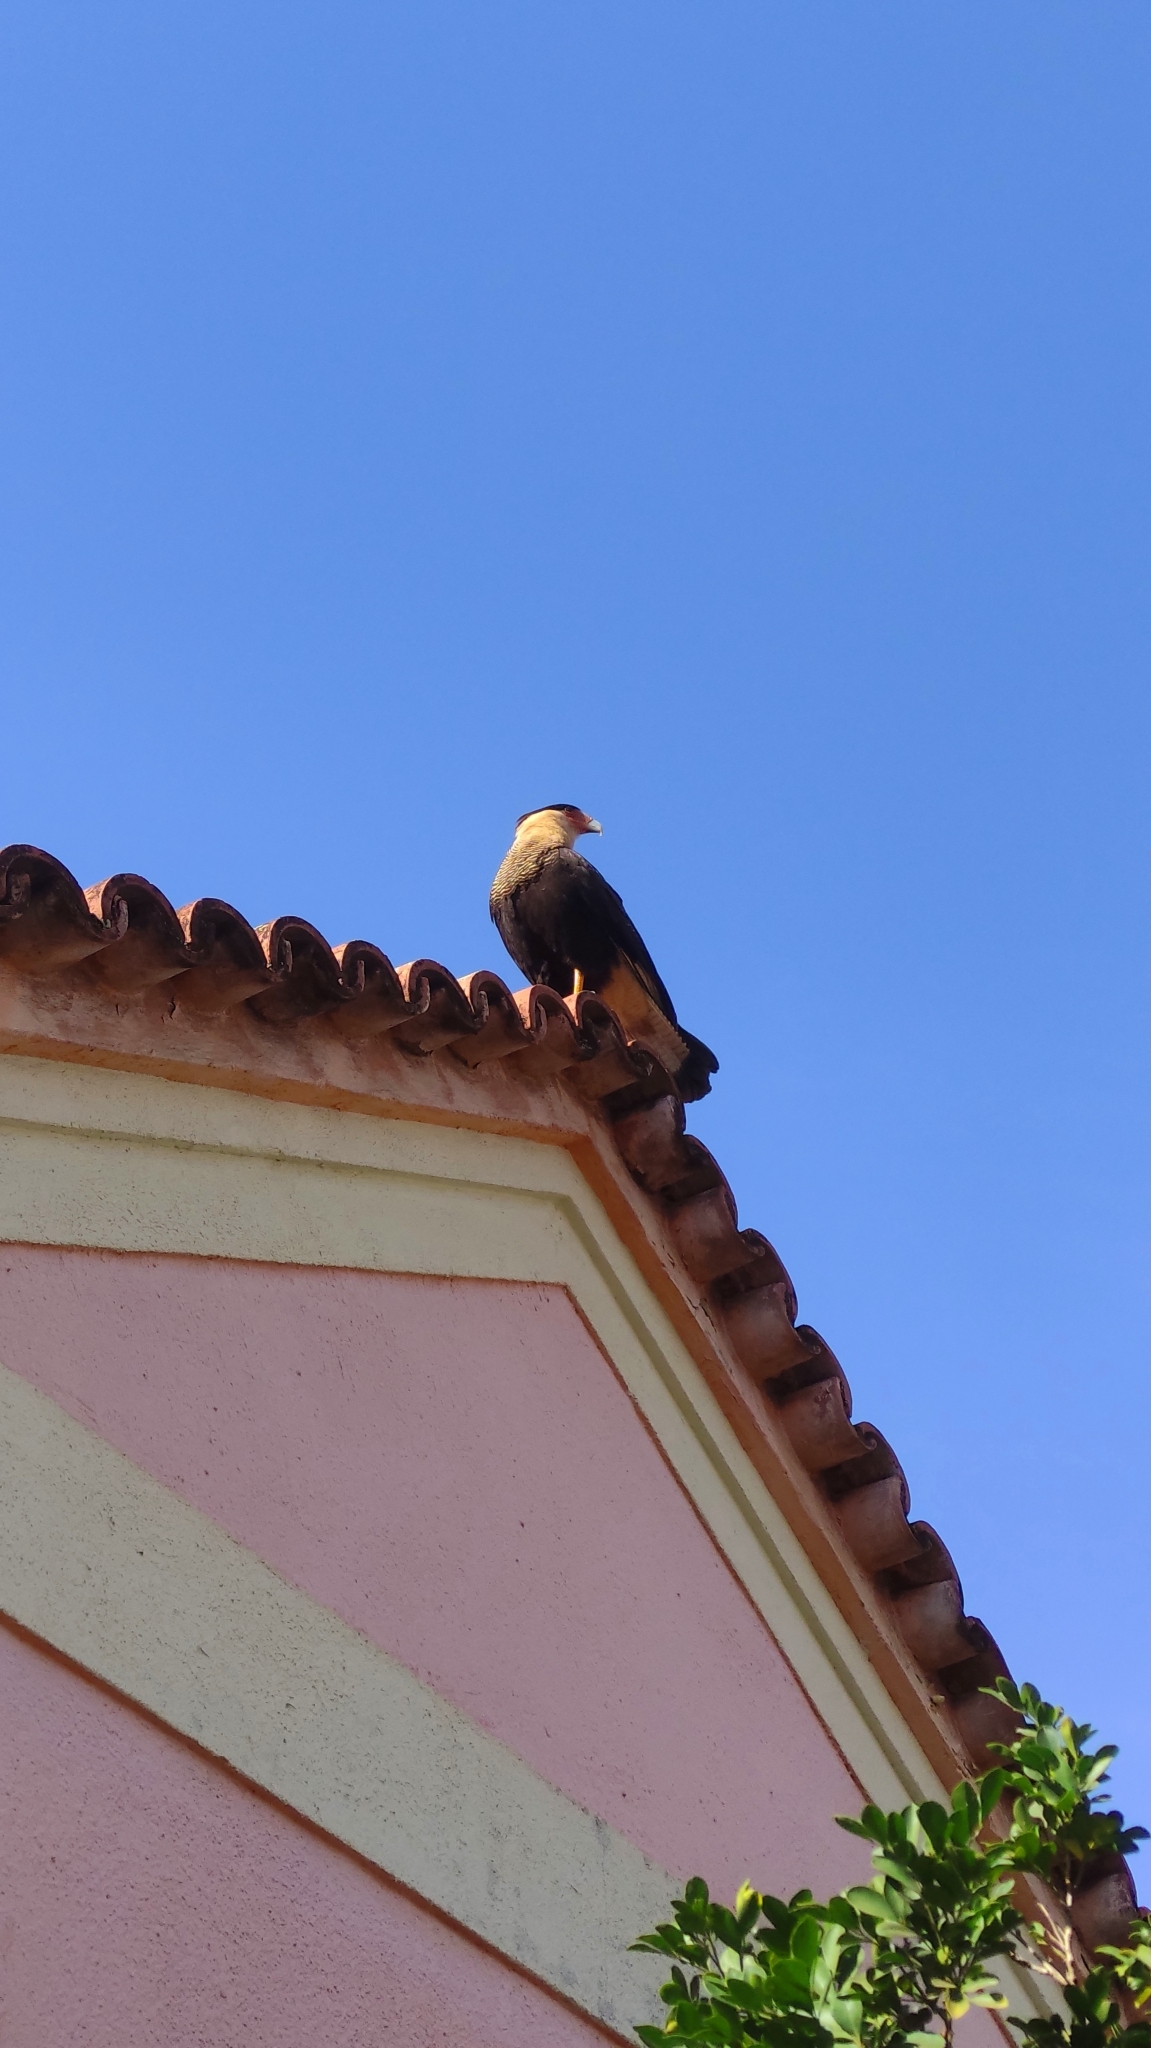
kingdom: Animalia
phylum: Chordata
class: Aves
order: Falconiformes
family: Falconidae
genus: Caracara
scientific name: Caracara plancus
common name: Southern caracara
